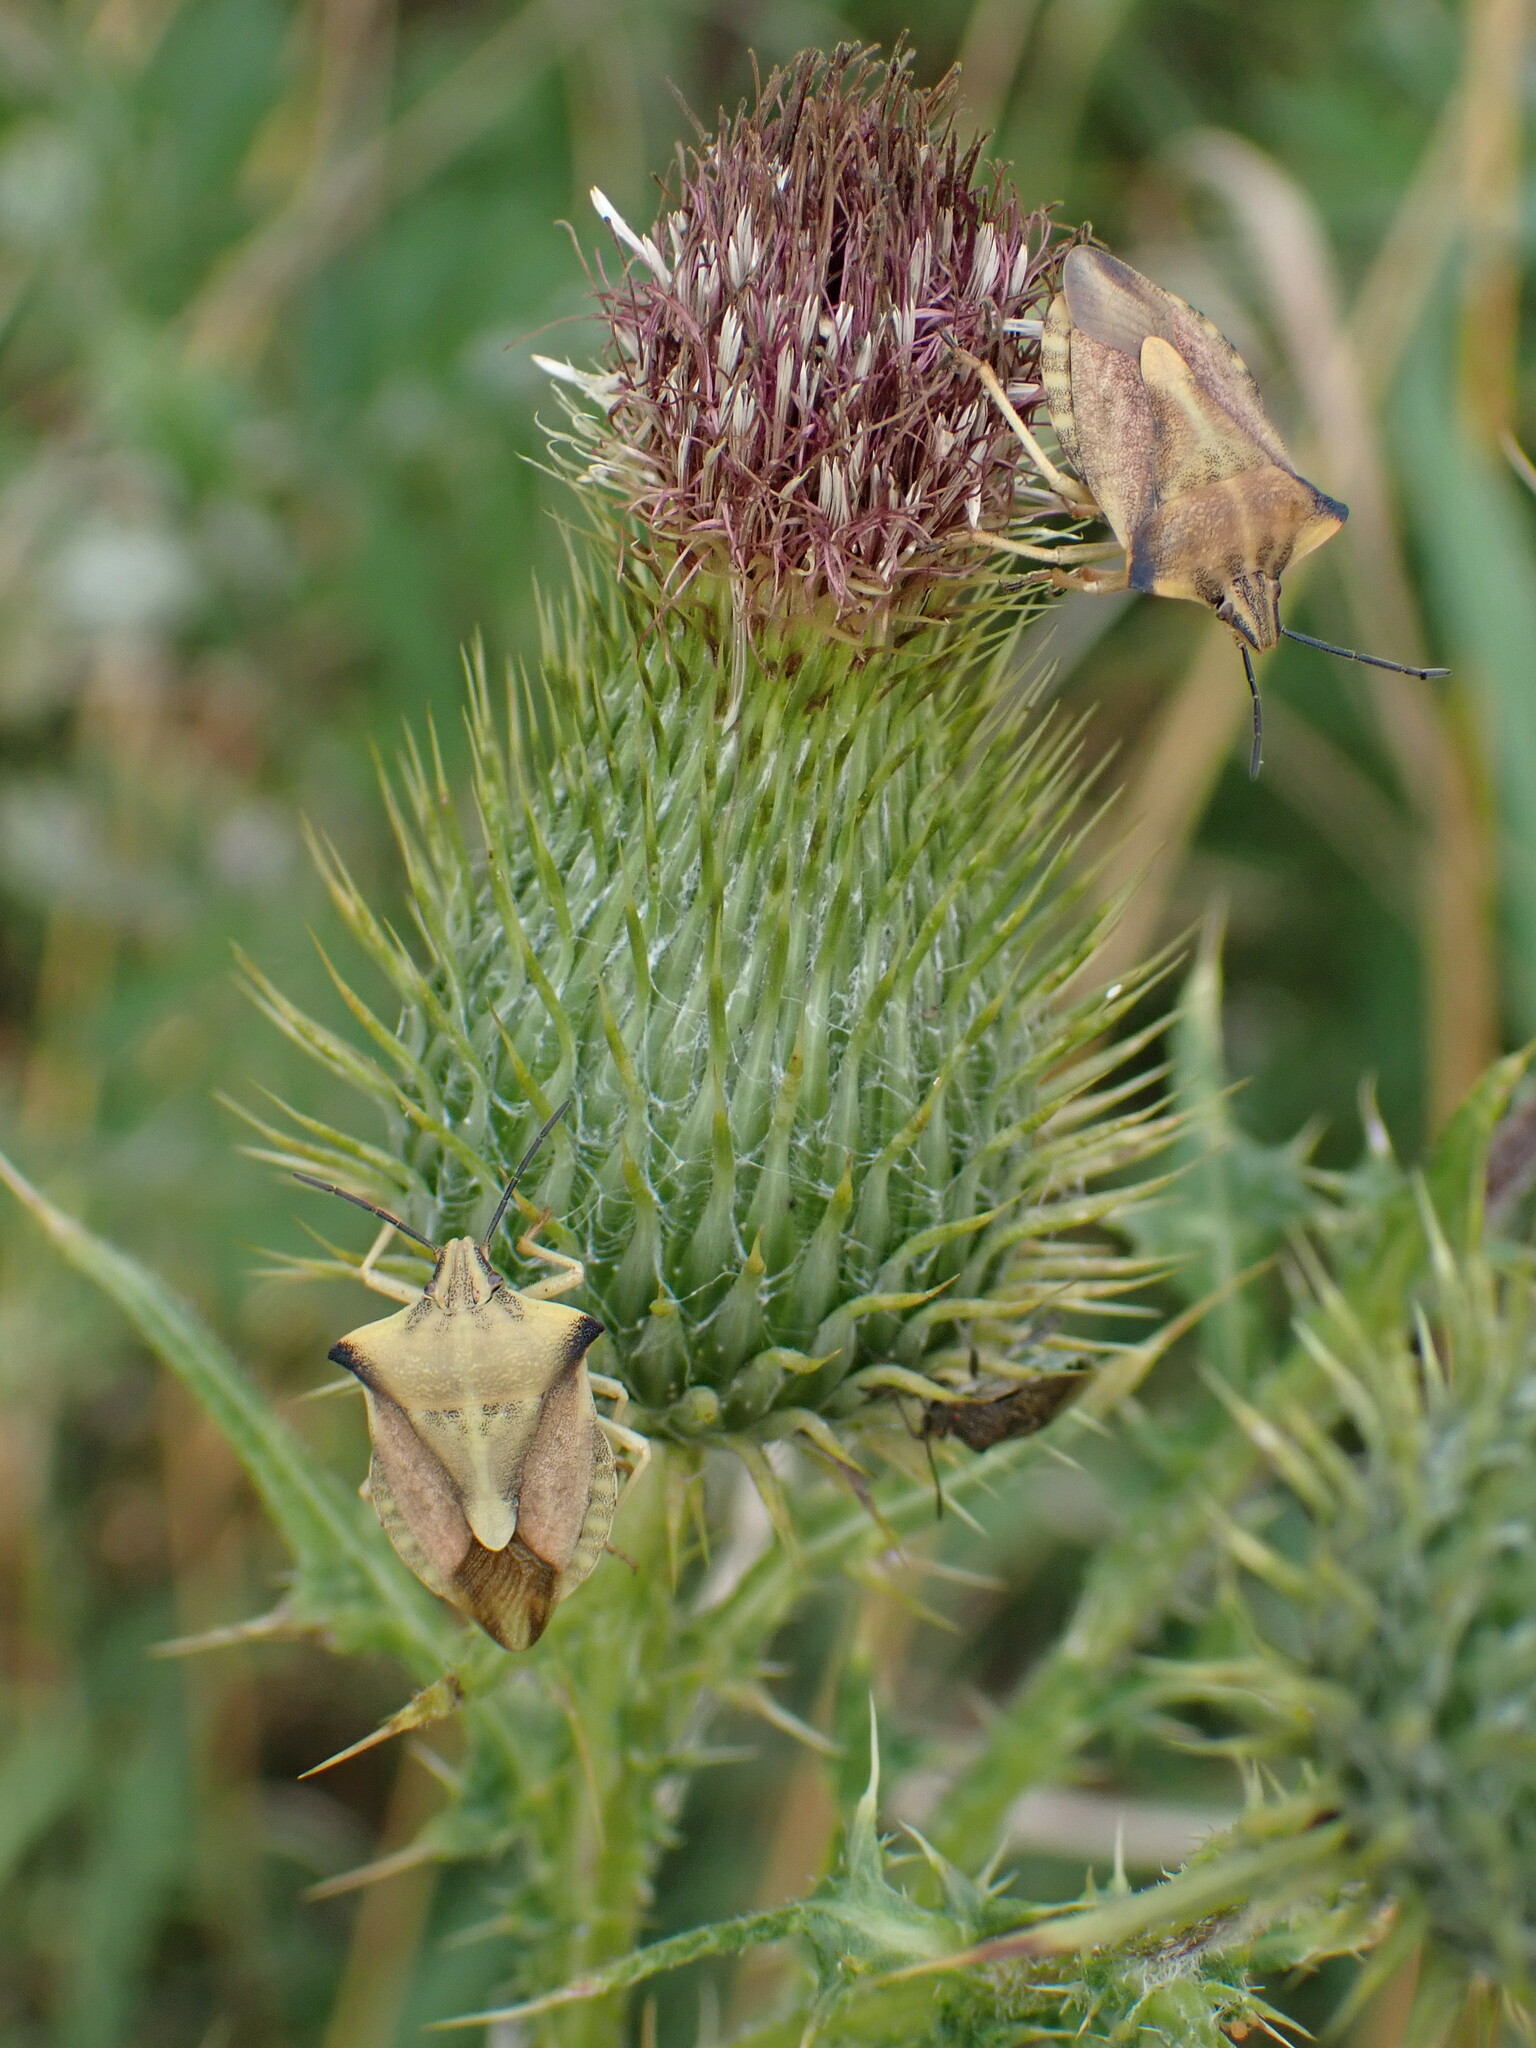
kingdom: Animalia
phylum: Arthropoda
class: Insecta
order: Hemiptera
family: Pentatomidae
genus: Carpocoris
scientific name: Carpocoris fuscispinus
